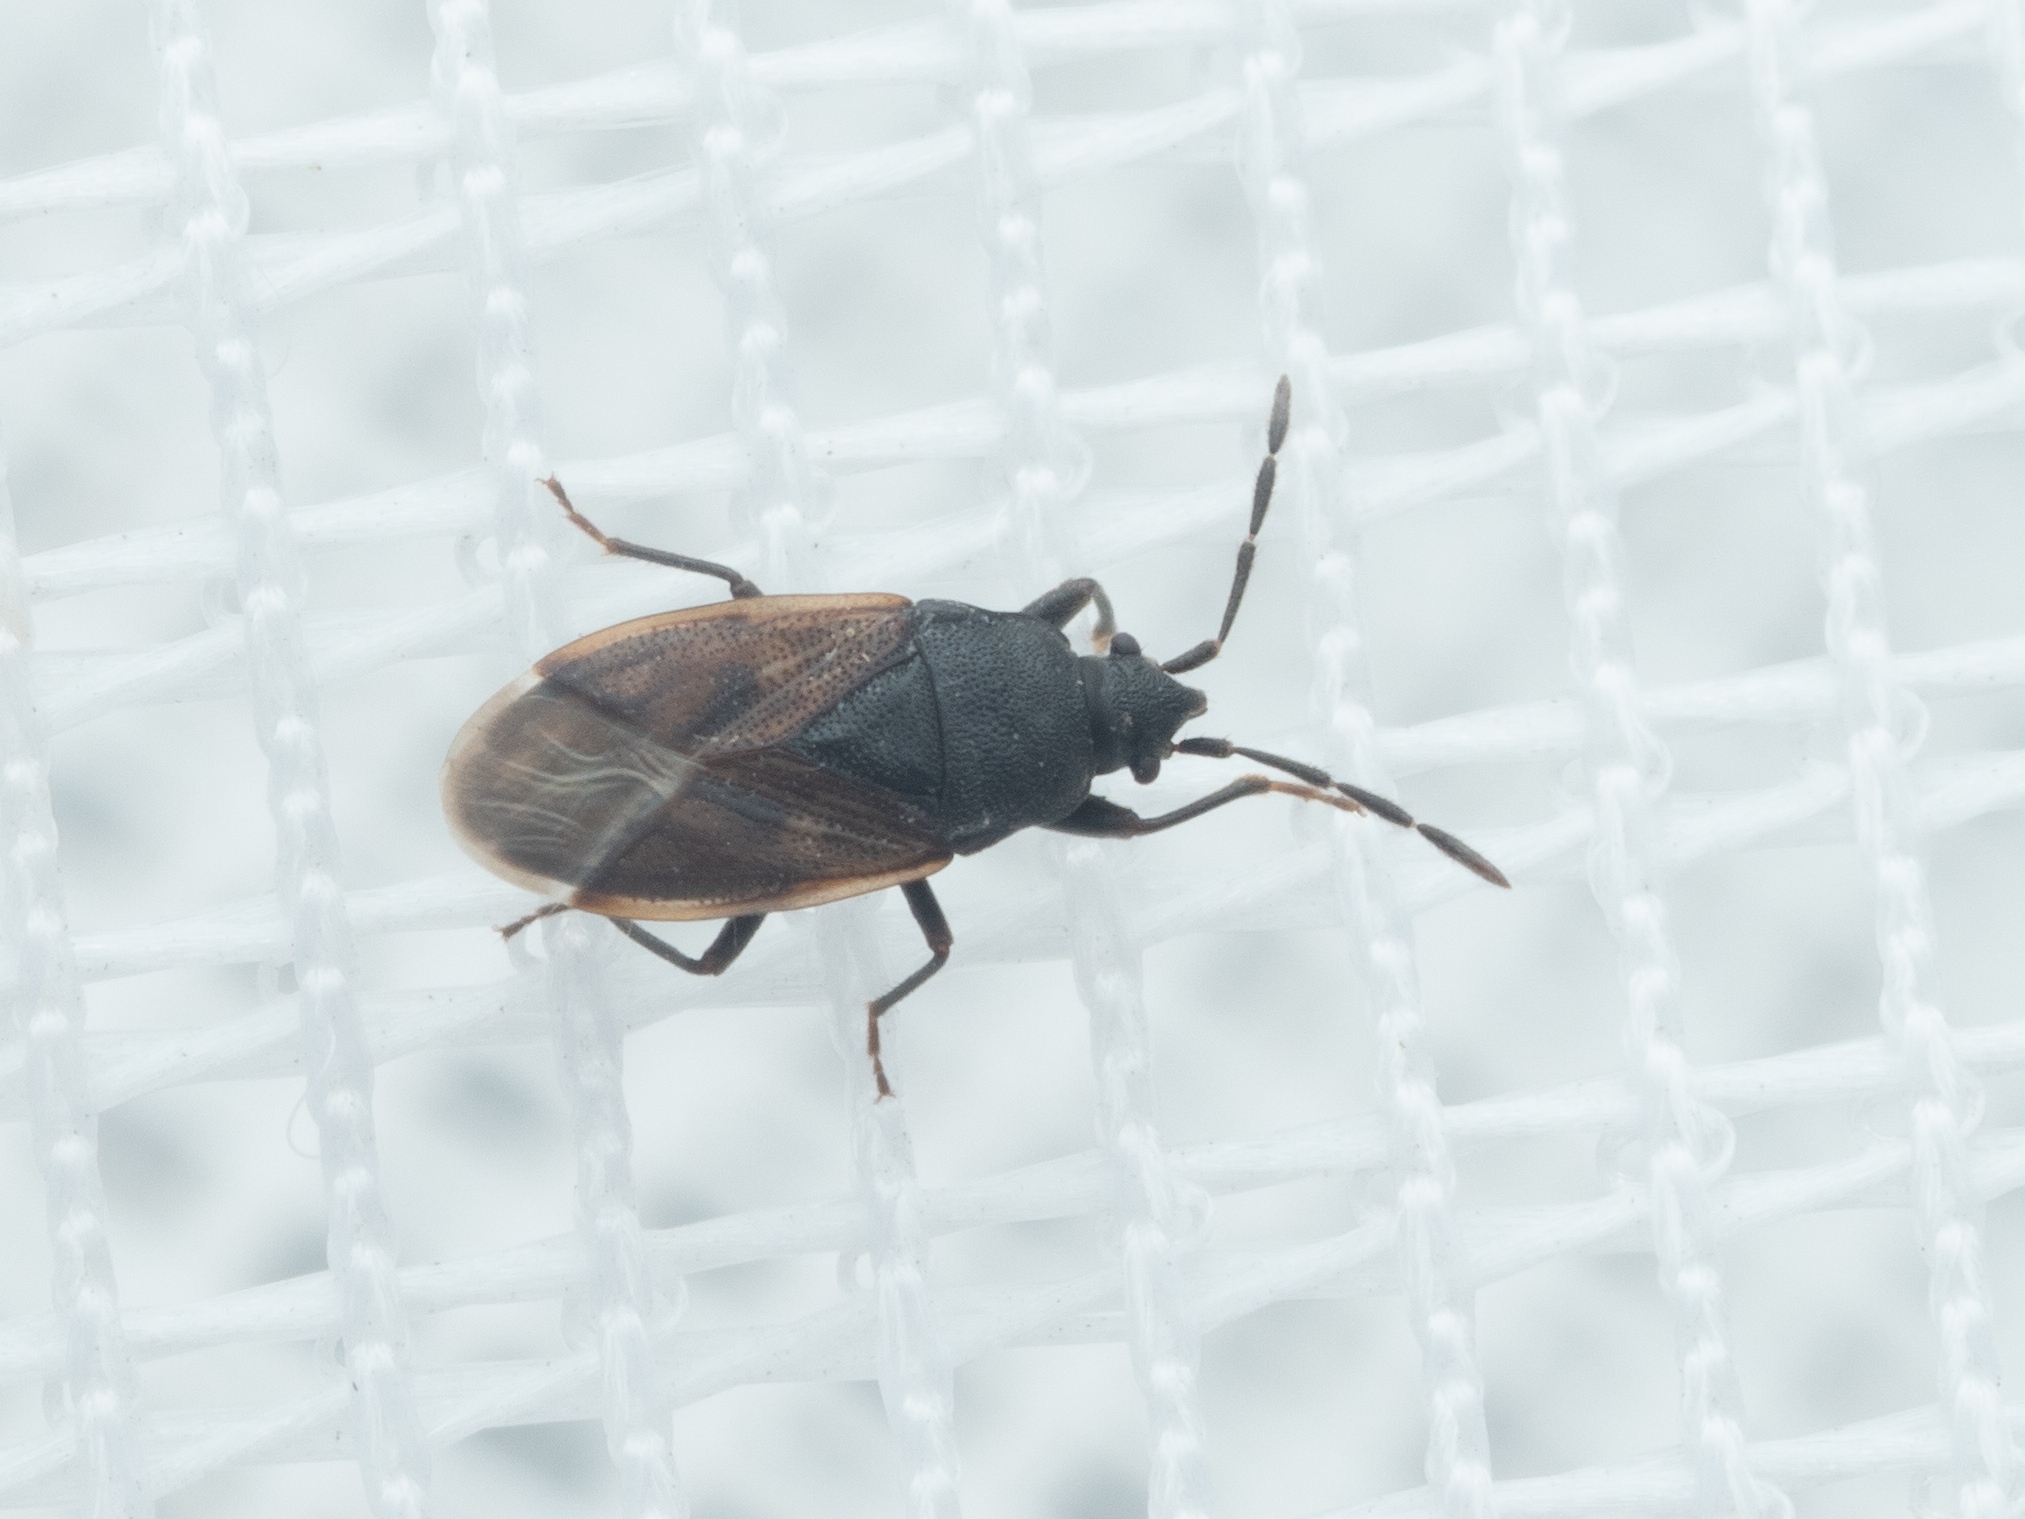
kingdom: Animalia
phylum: Arthropoda
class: Insecta
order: Hemiptera
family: Rhyparochromidae
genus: Drymus
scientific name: Drymus sylvaticus
